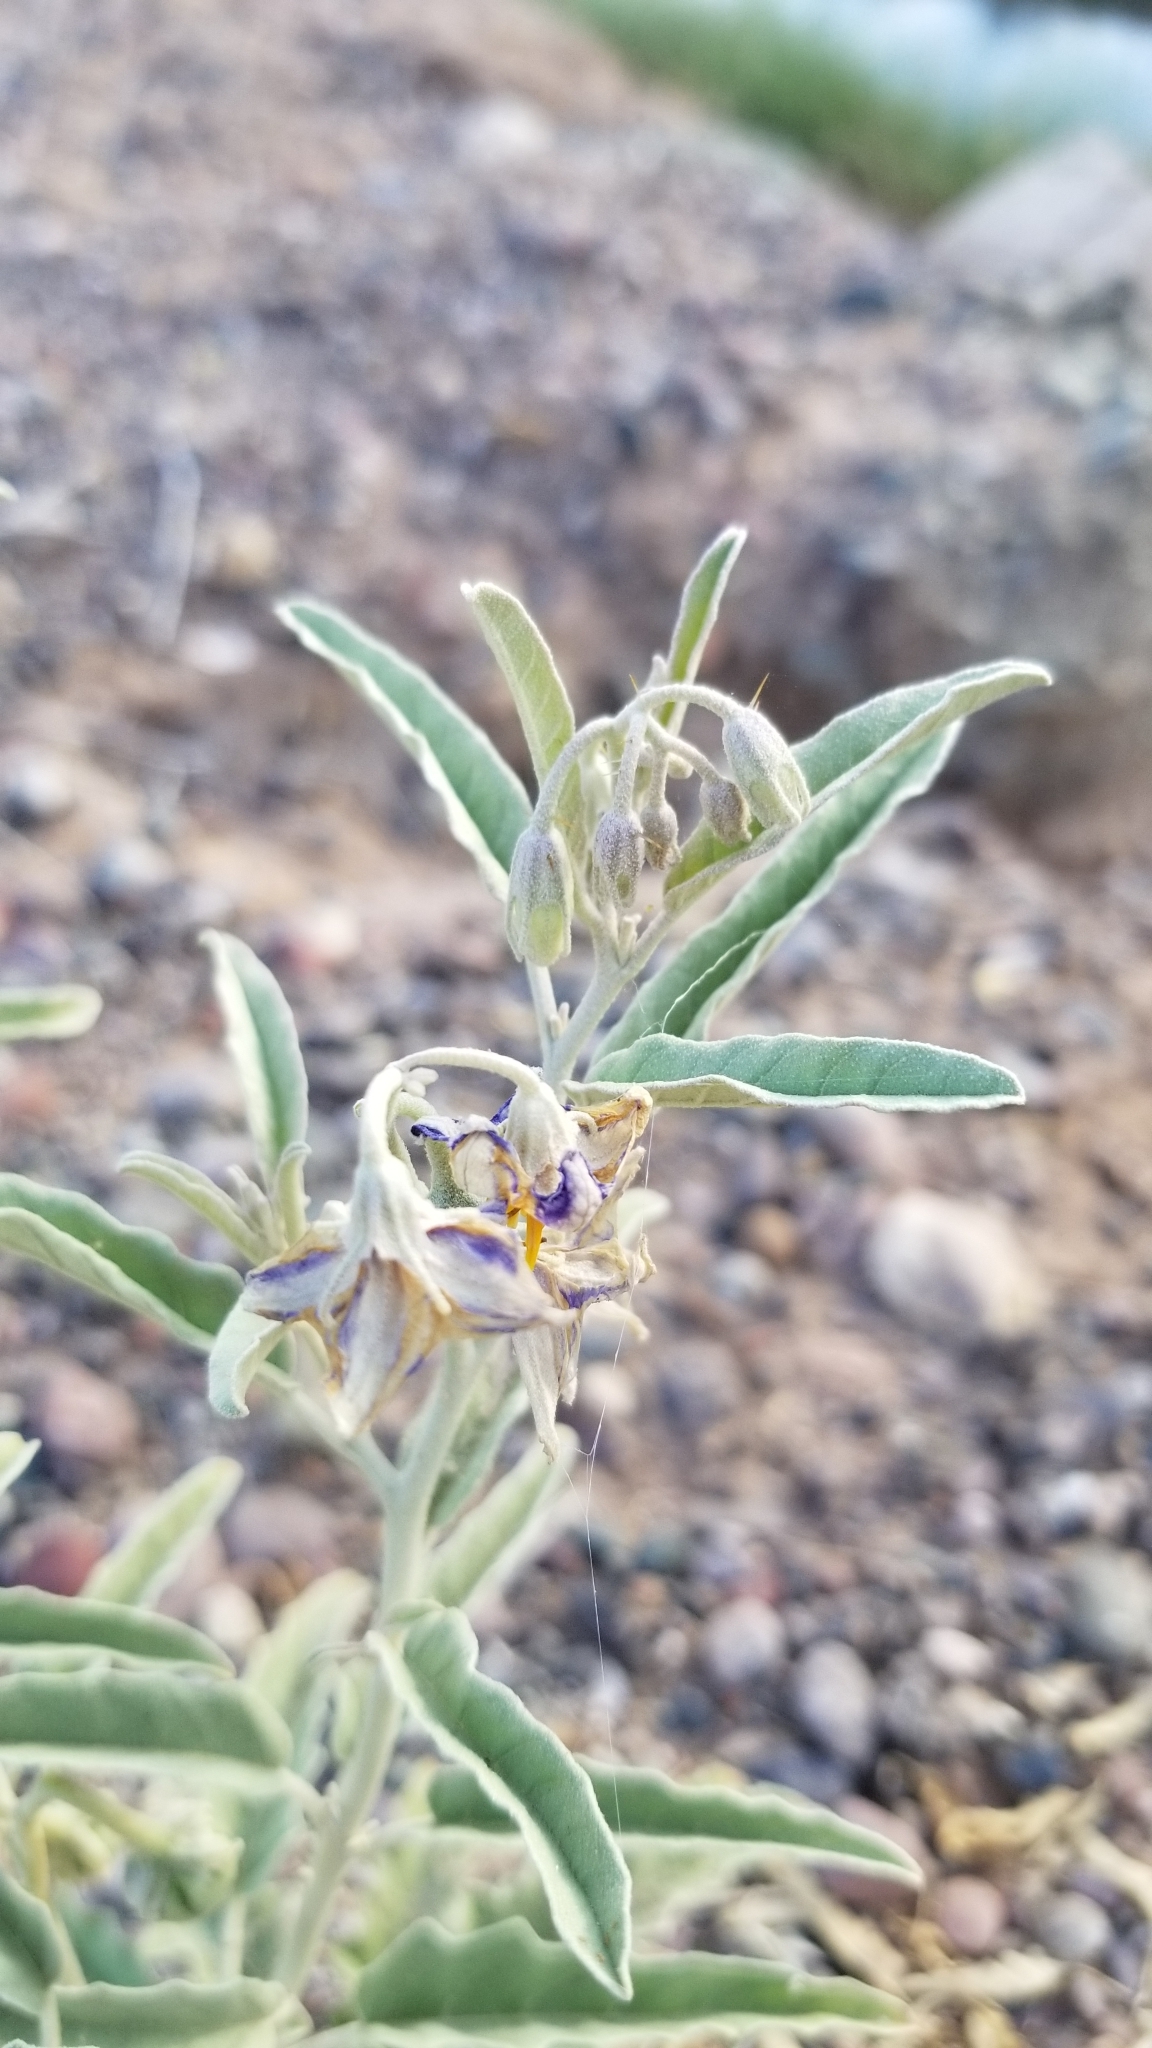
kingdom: Plantae
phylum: Tracheophyta
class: Magnoliopsida
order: Solanales
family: Solanaceae
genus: Solanum
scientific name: Solanum elaeagnifolium
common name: Silverleaf nightshade
